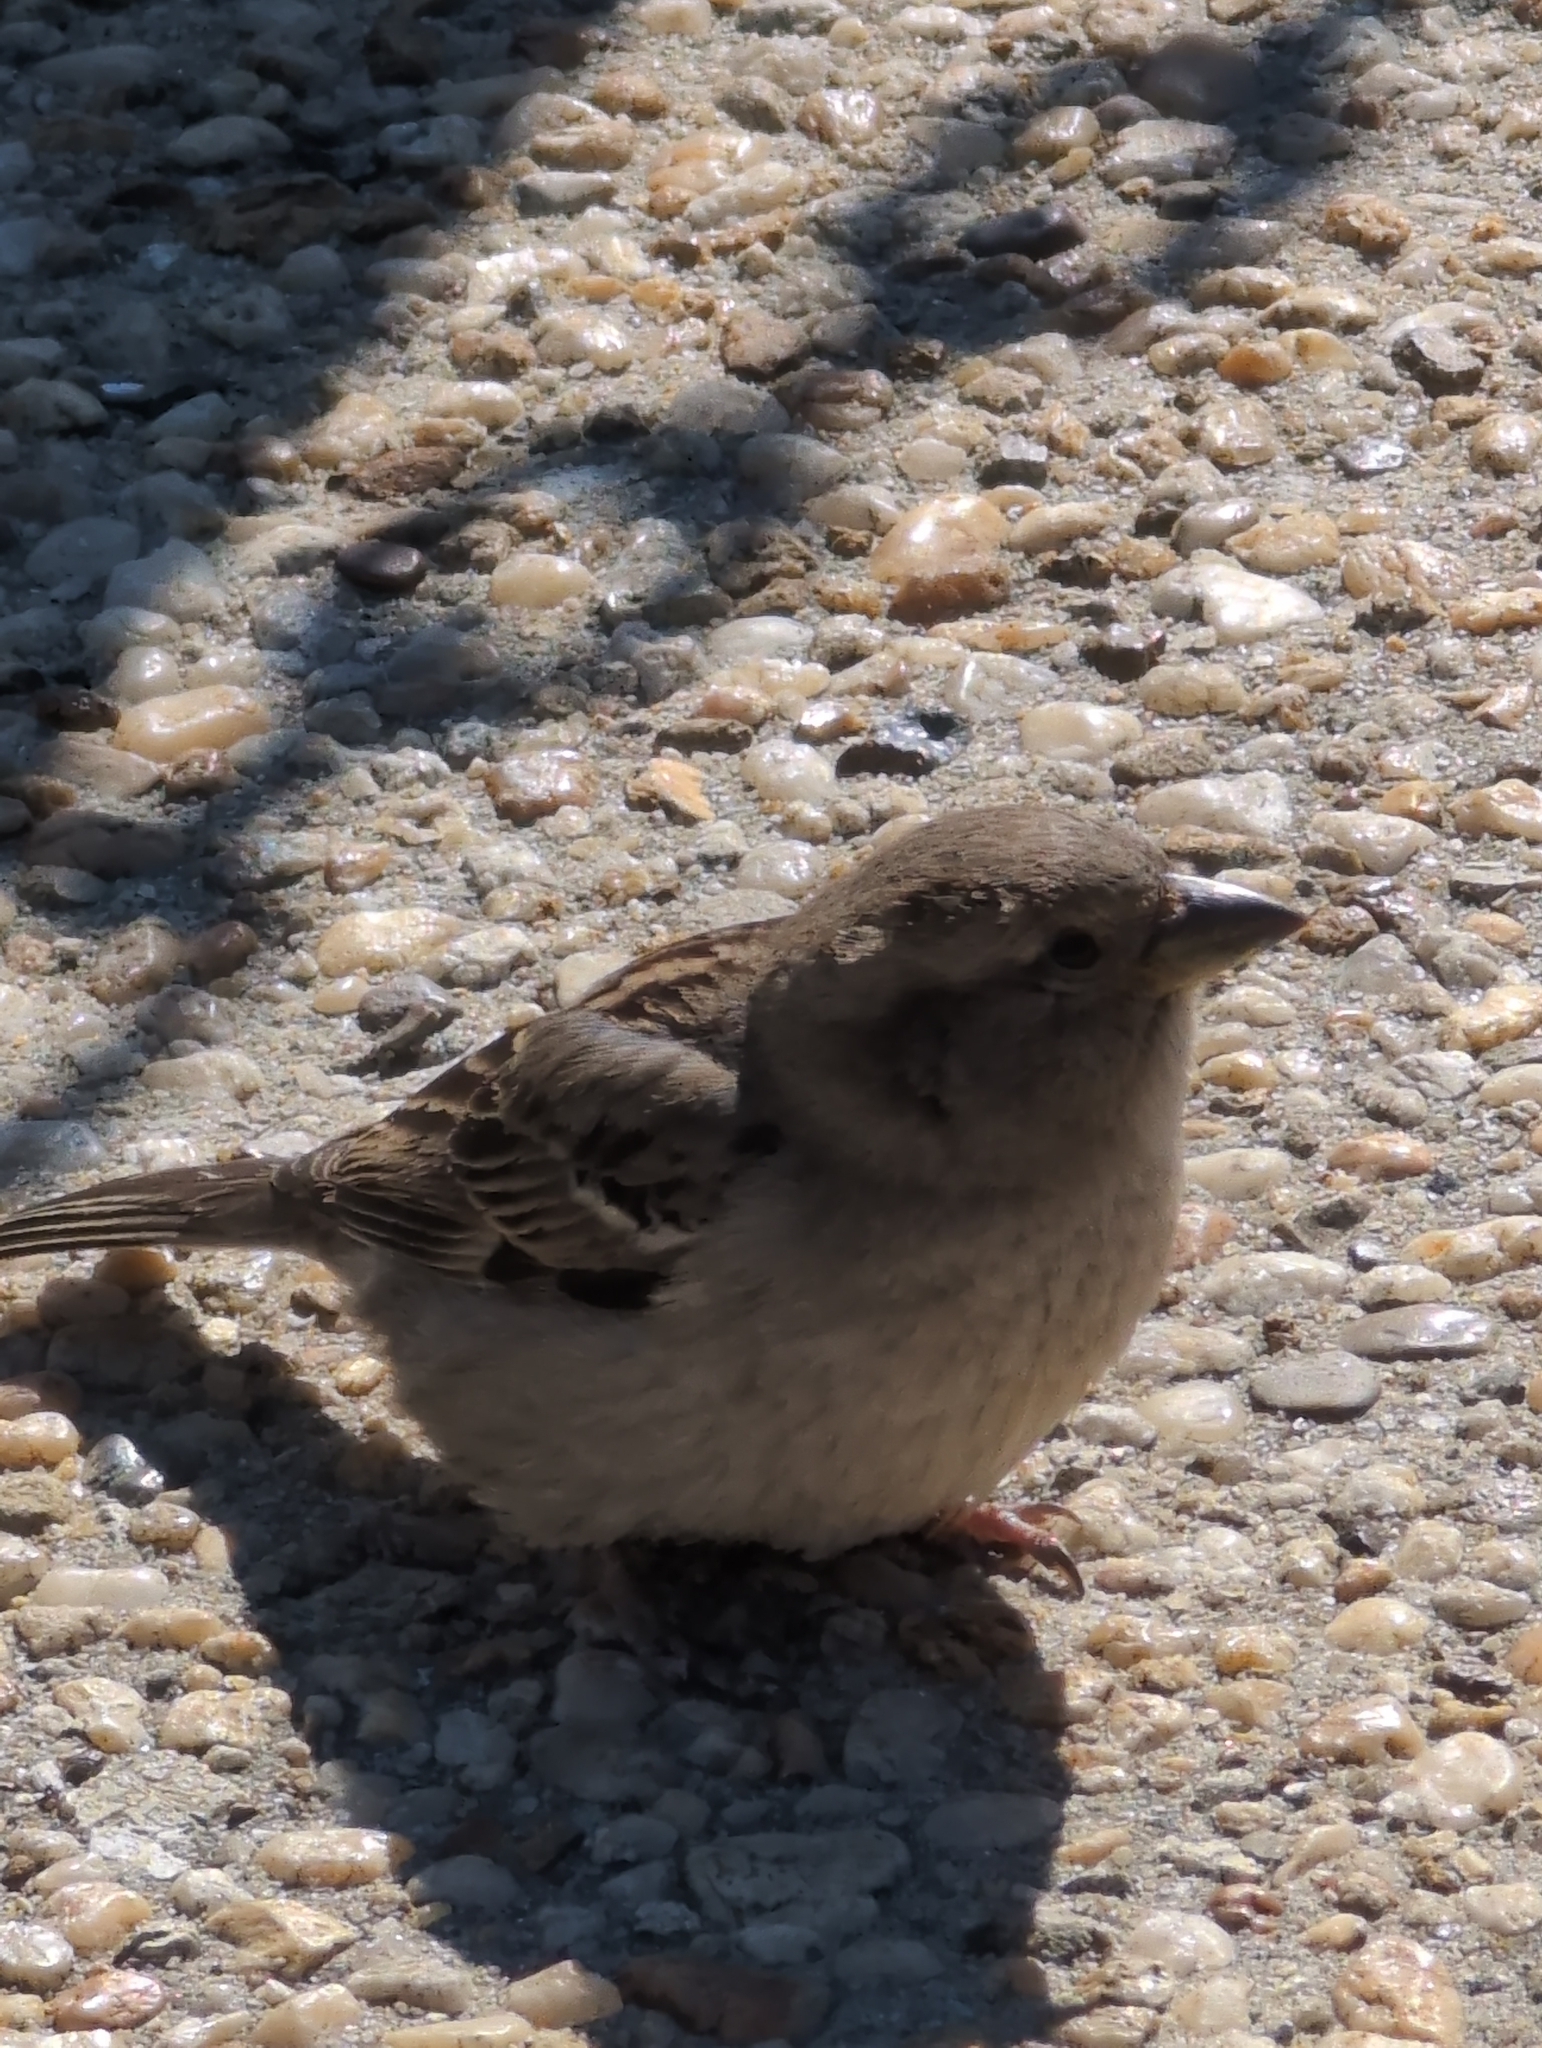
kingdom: Animalia
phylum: Chordata
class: Aves
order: Passeriformes
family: Passeridae
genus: Passer
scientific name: Passer domesticus
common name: House sparrow
